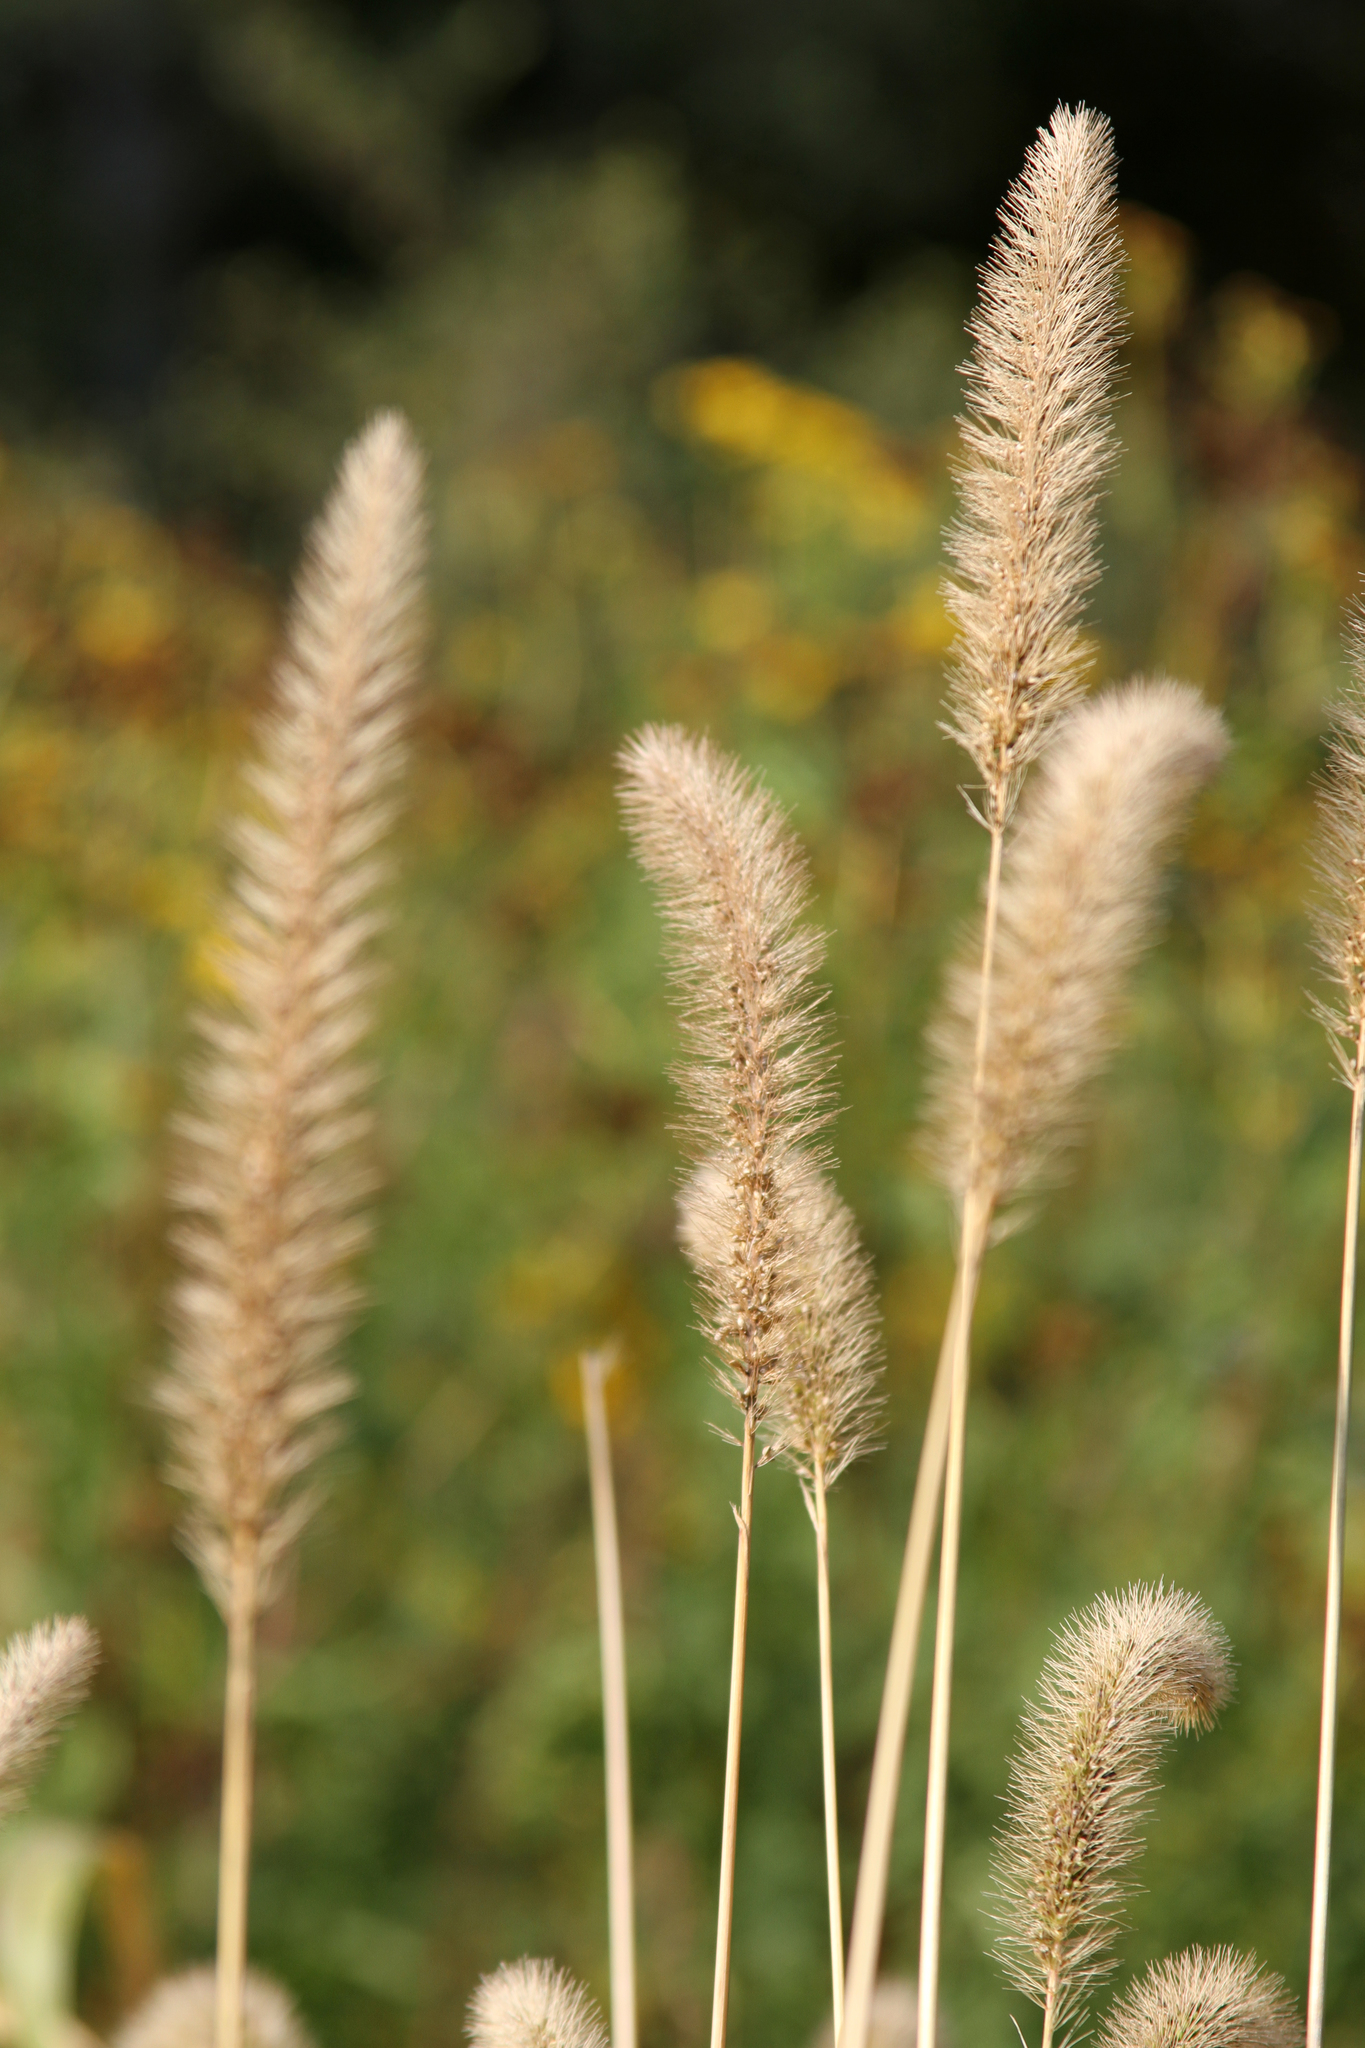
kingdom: Plantae
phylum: Tracheophyta
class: Liliopsida
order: Poales
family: Poaceae
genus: Setaria
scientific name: Setaria viridis
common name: Green bristlegrass
